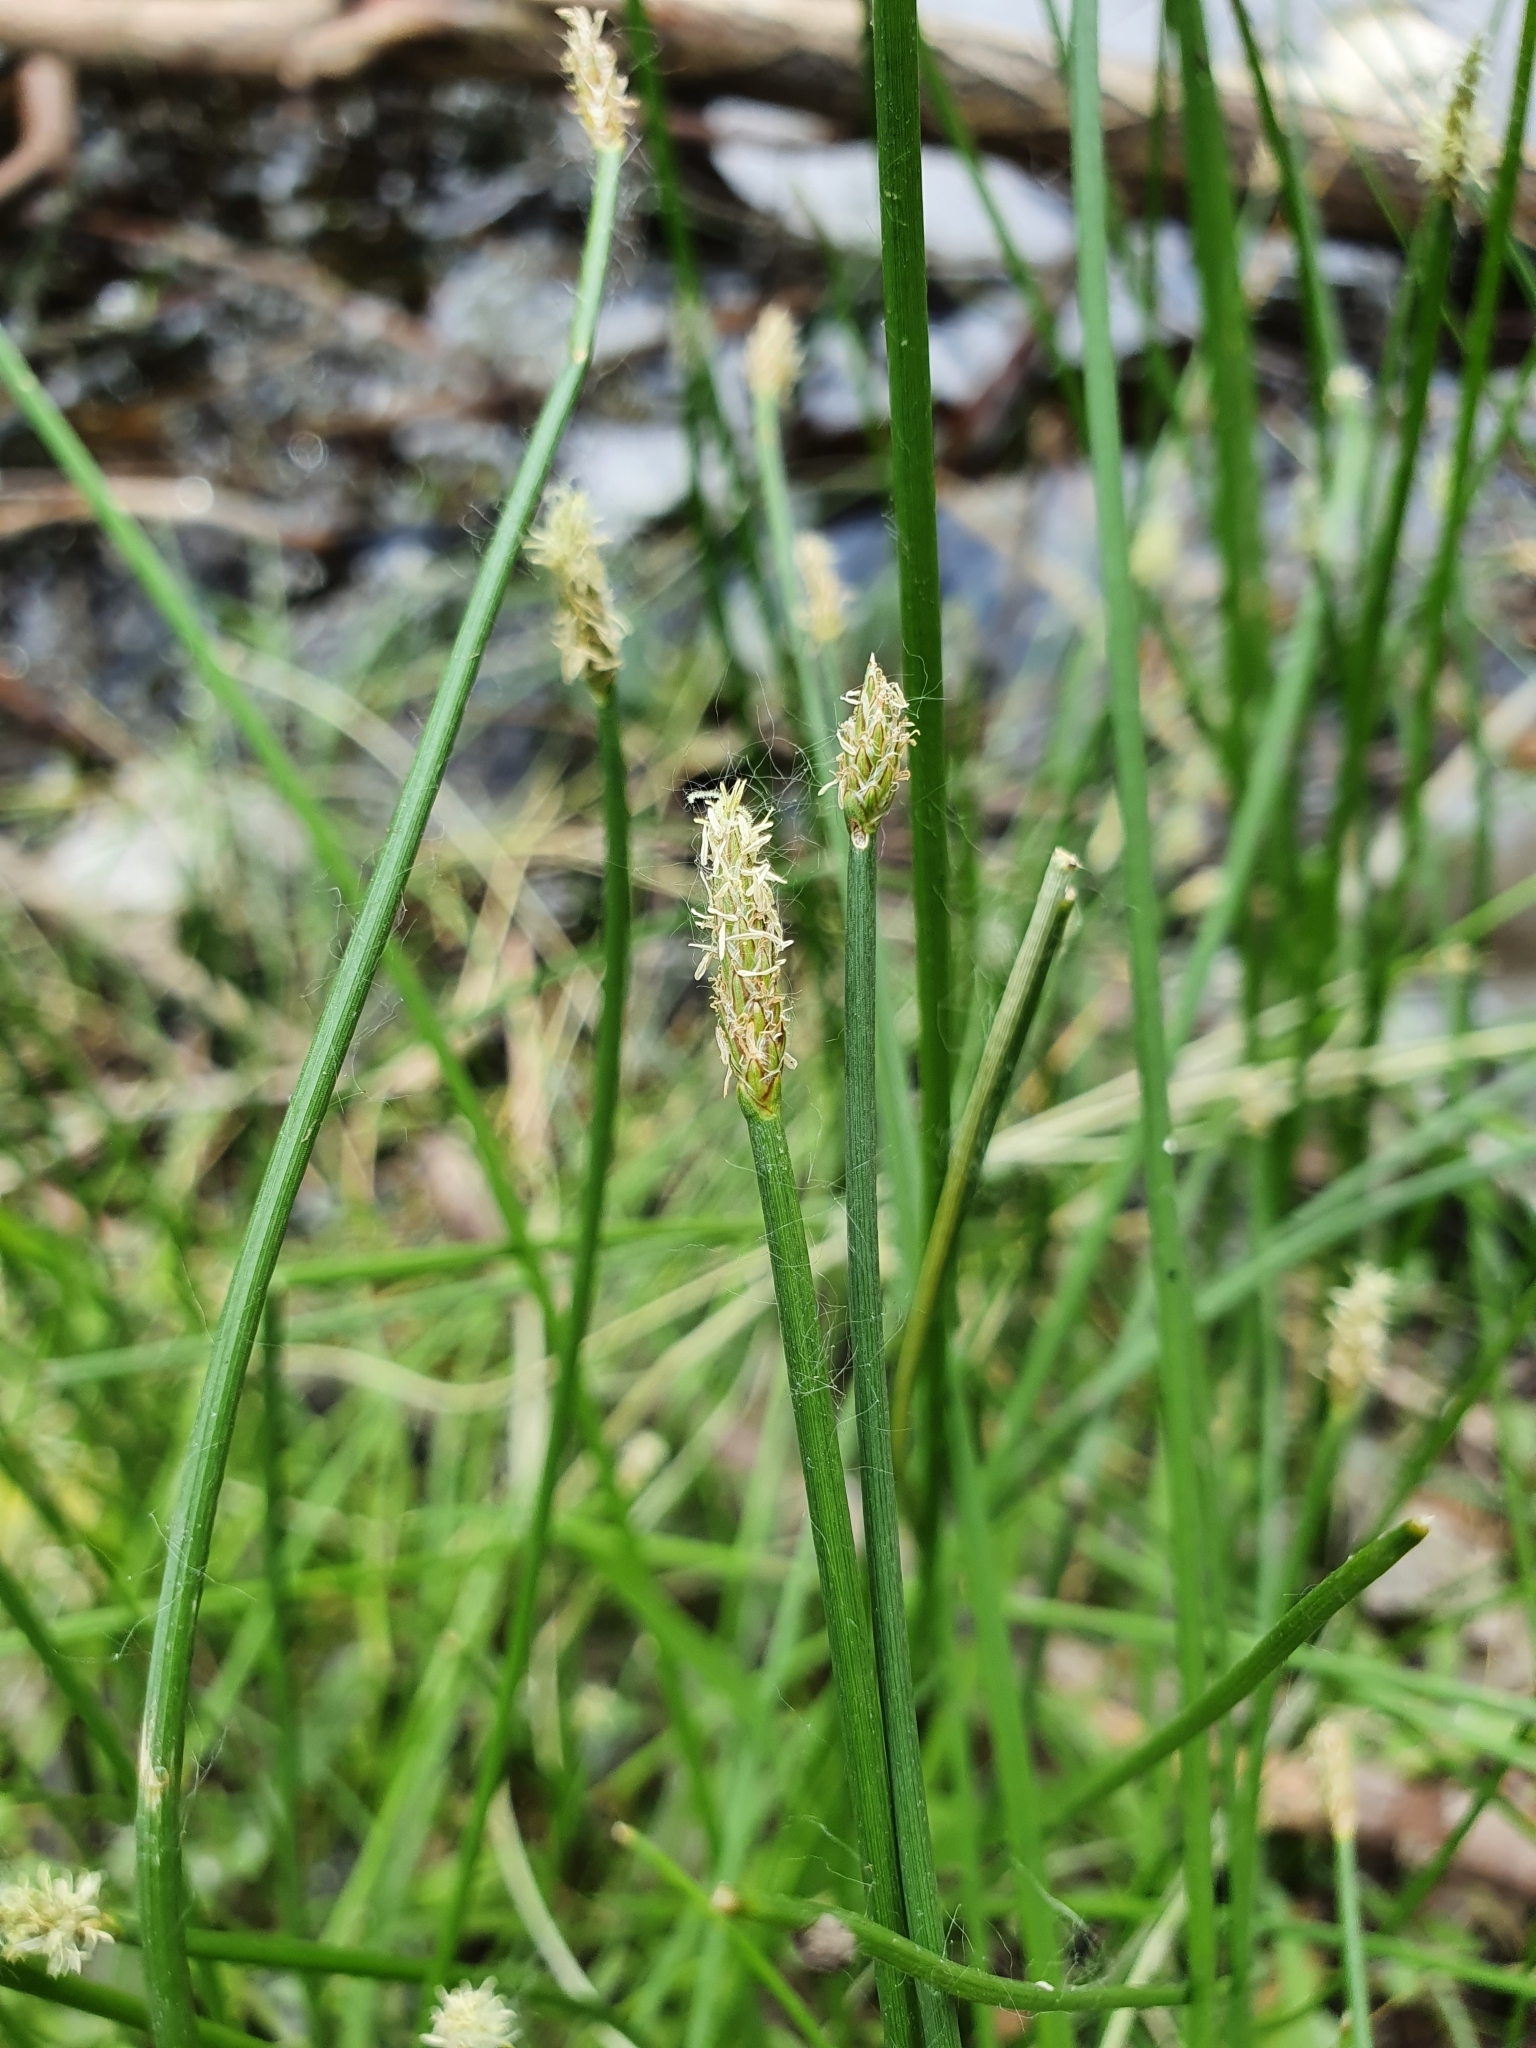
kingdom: Plantae
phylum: Tracheophyta
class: Liliopsida
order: Poales
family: Cyperaceae
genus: Eleocharis
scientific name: Eleocharis palustris
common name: Common spike-rush
